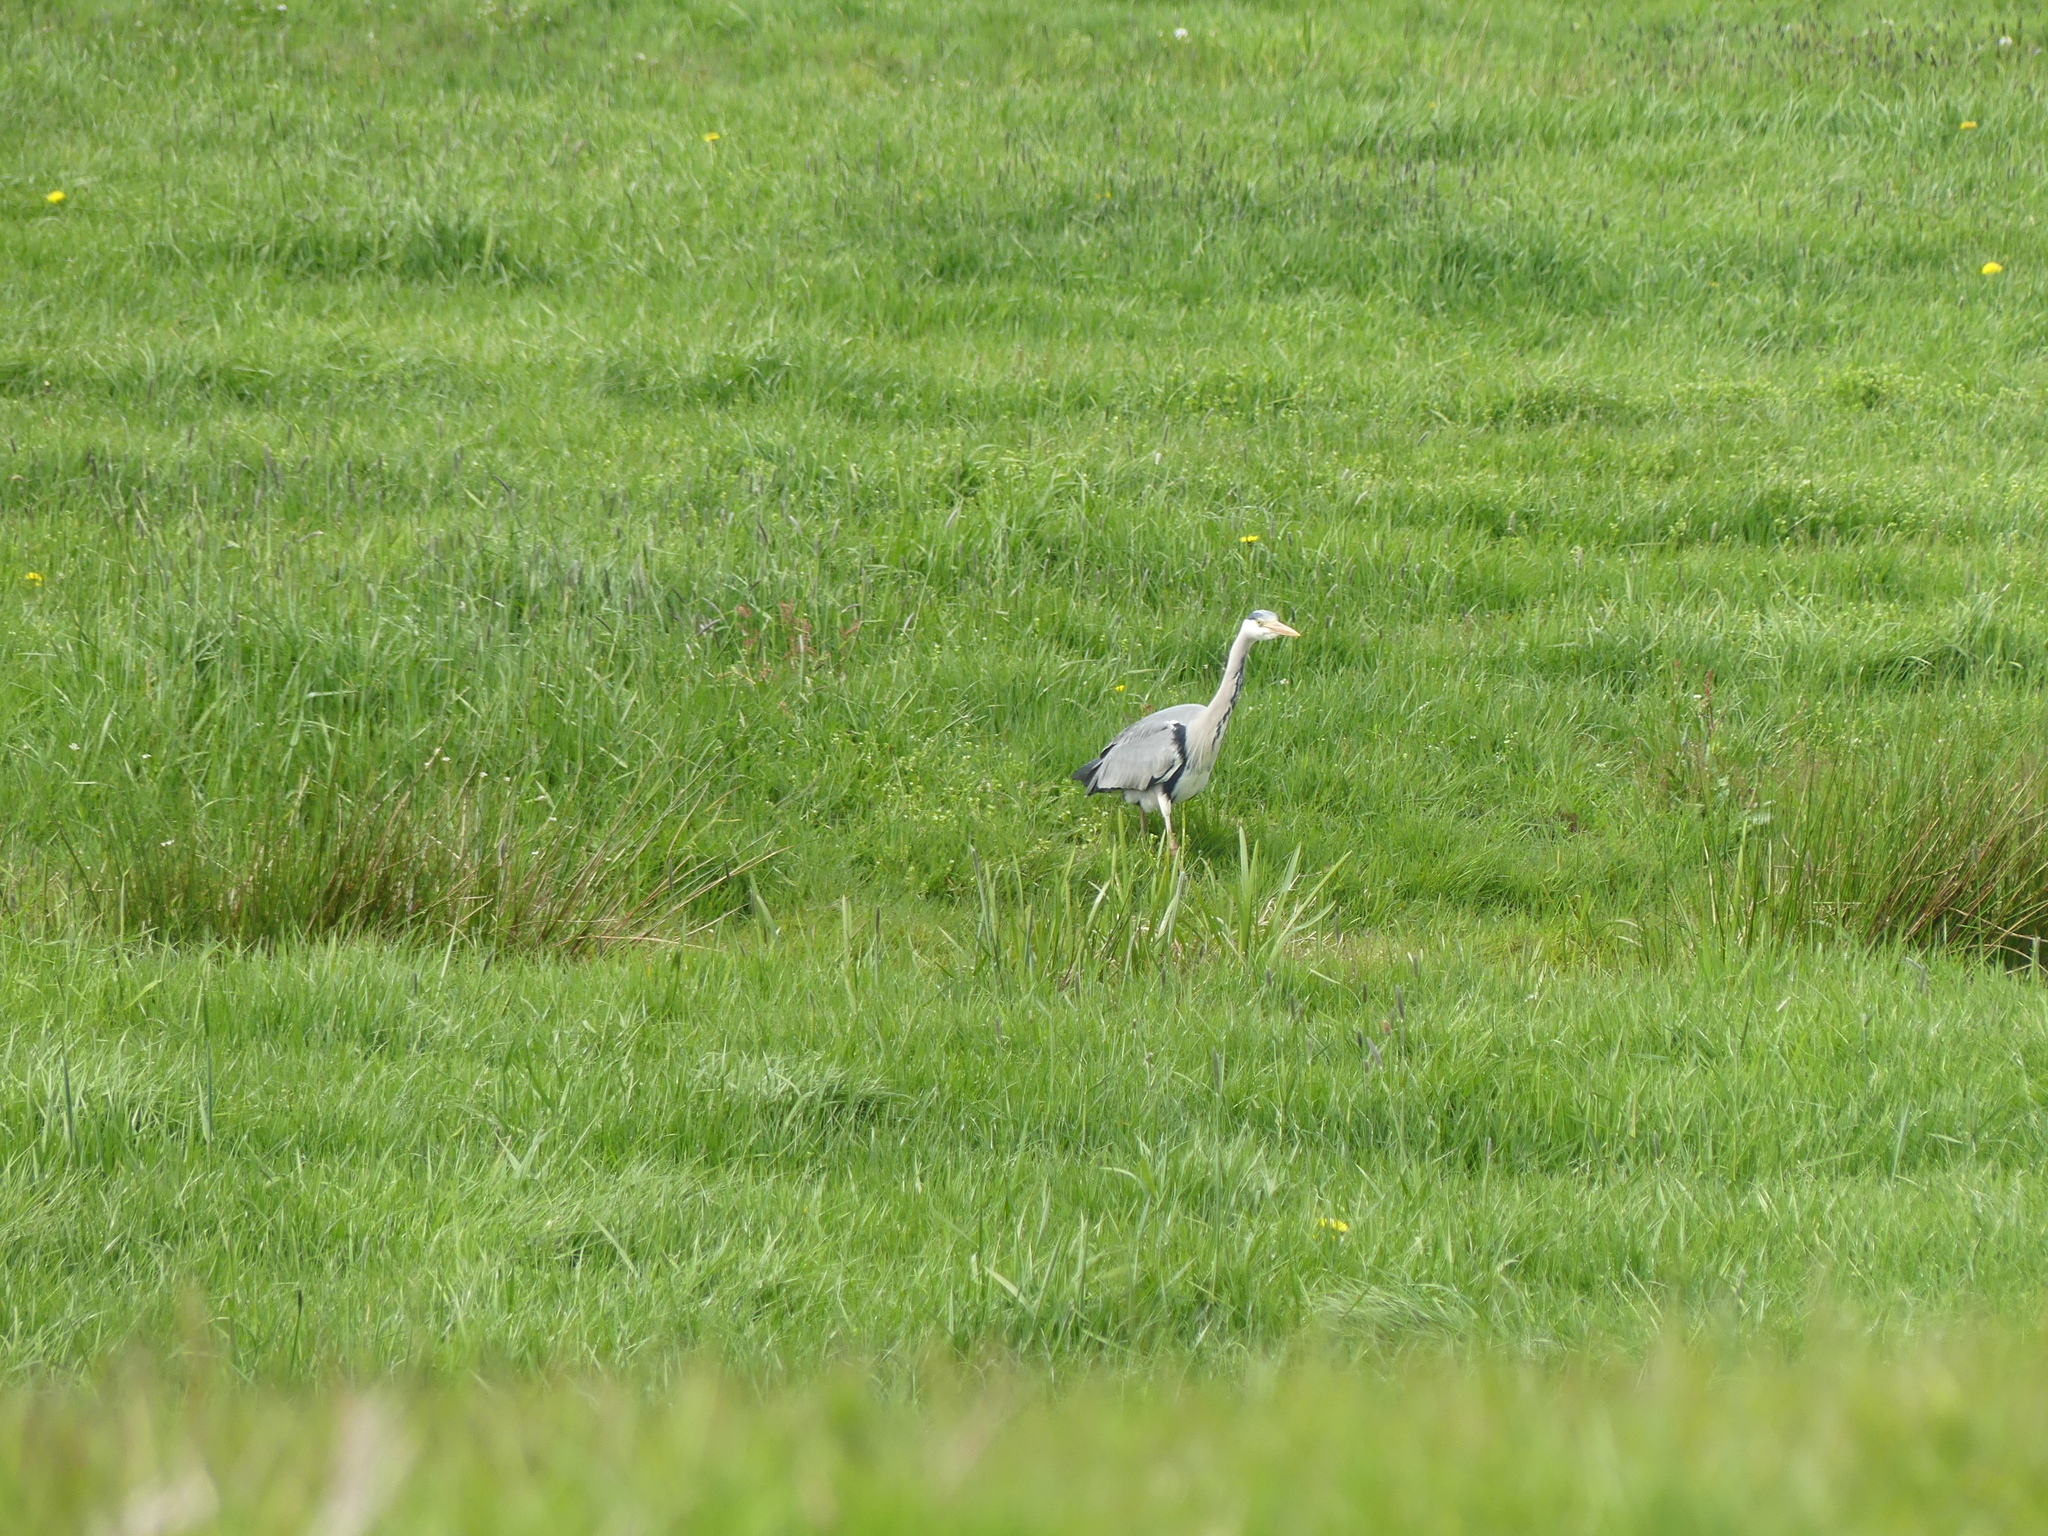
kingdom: Animalia
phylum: Chordata
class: Aves
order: Pelecaniformes
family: Ardeidae
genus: Ardea
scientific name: Ardea cinerea
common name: Grey heron
